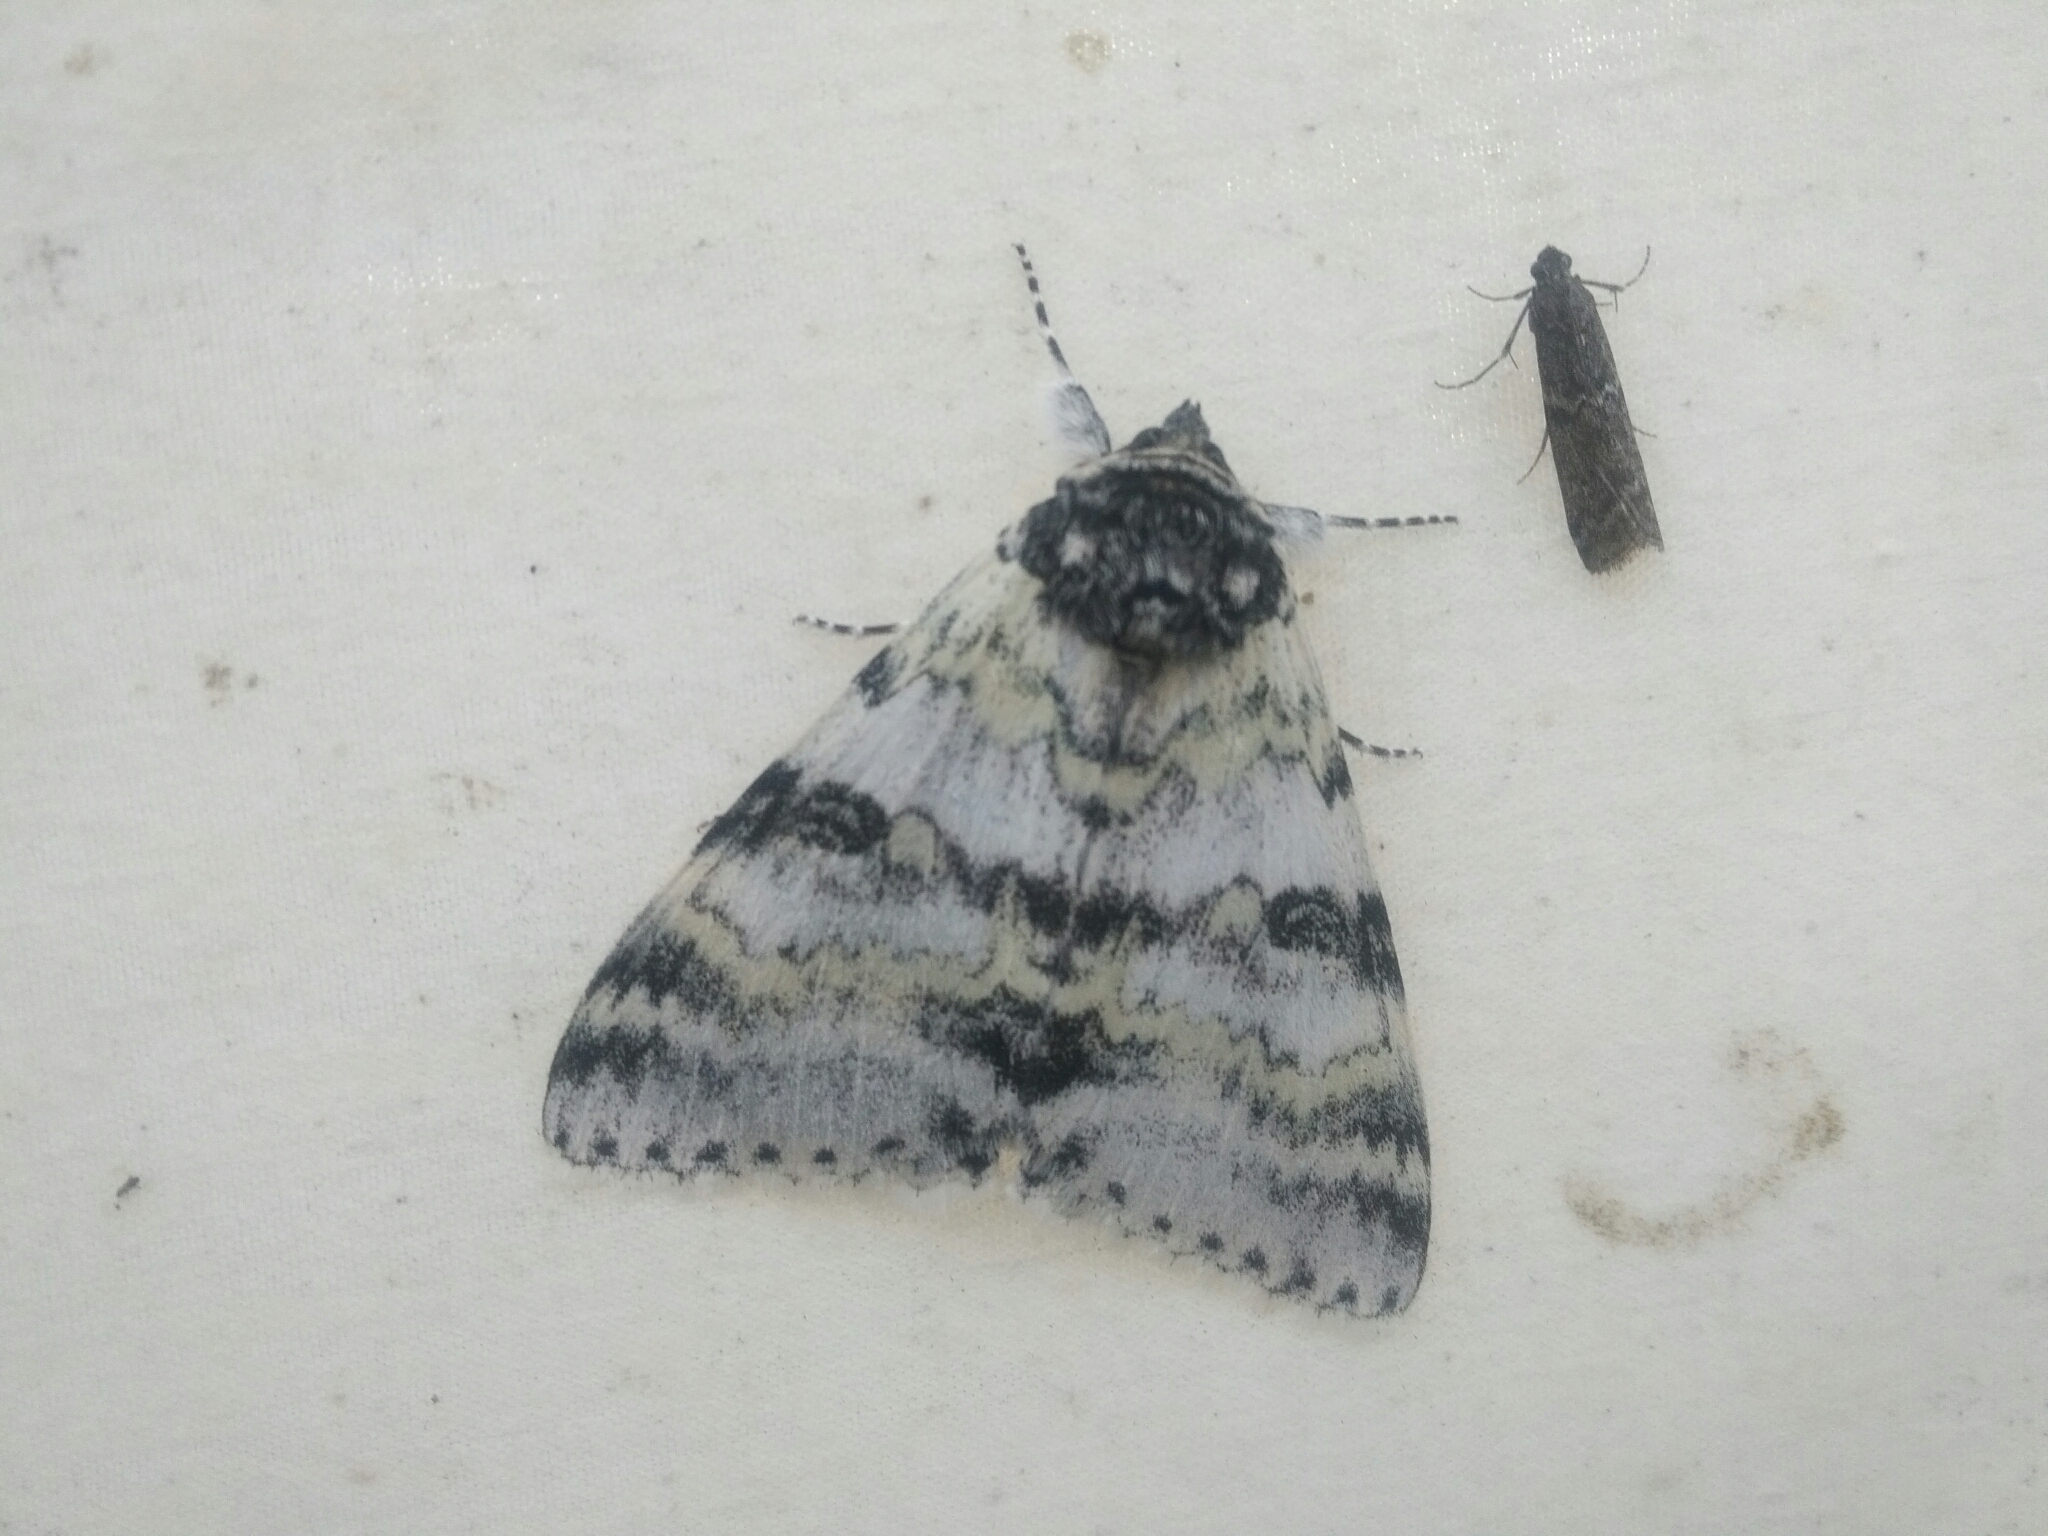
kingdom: Animalia
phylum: Arthropoda
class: Insecta
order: Lepidoptera
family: Erebidae
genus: Catocala
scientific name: Catocala relicta
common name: White underwing
